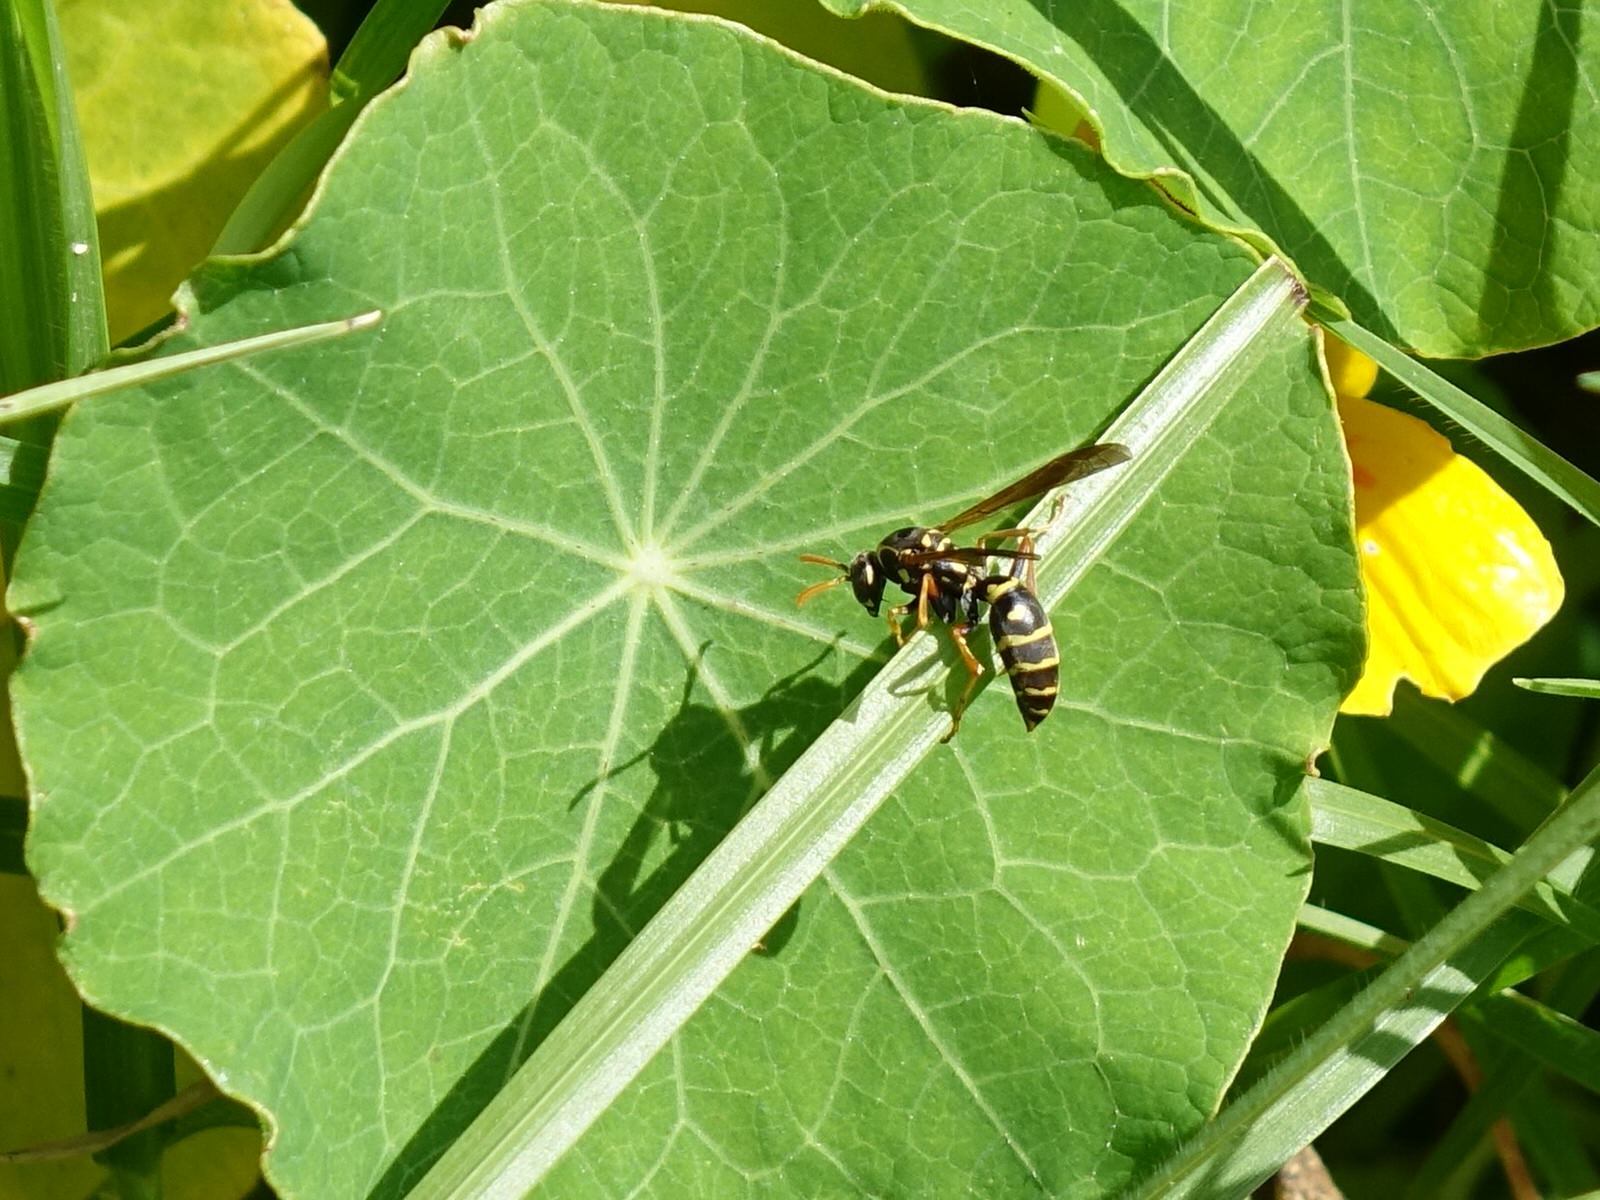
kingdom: Animalia
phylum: Arthropoda
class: Insecta
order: Hymenoptera
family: Eumenidae
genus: Polistes
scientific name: Polistes chinensis
